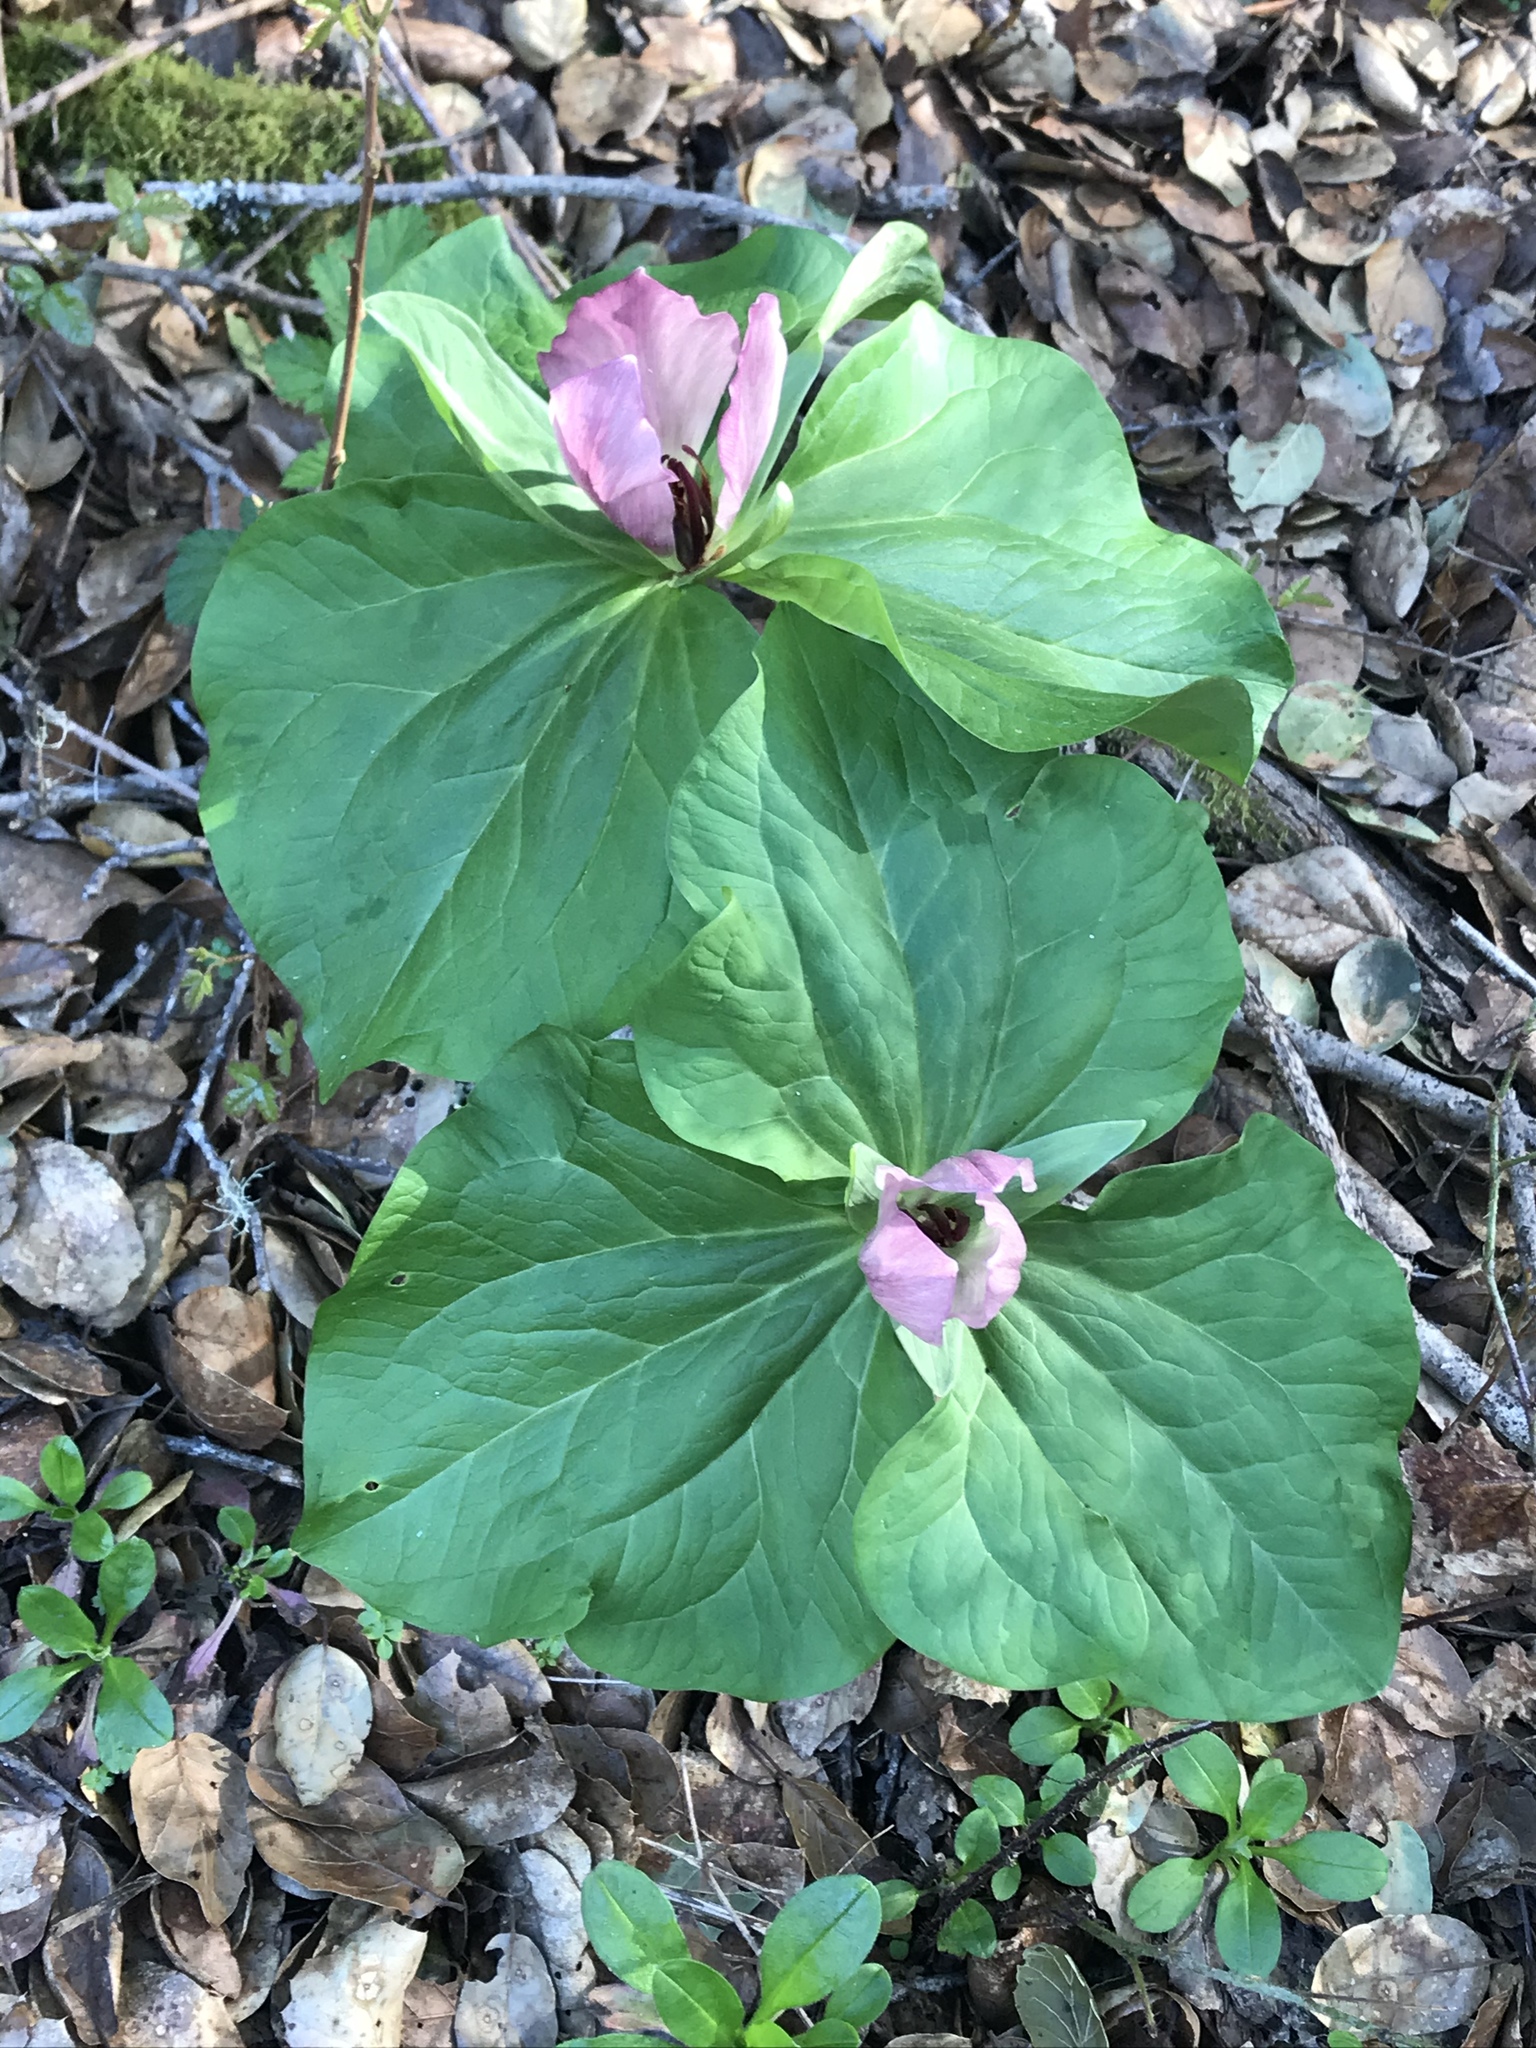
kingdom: Plantae
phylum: Tracheophyta
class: Liliopsida
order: Liliales
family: Melanthiaceae
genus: Trillium
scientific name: Trillium chloropetalum
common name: Giant trillium
